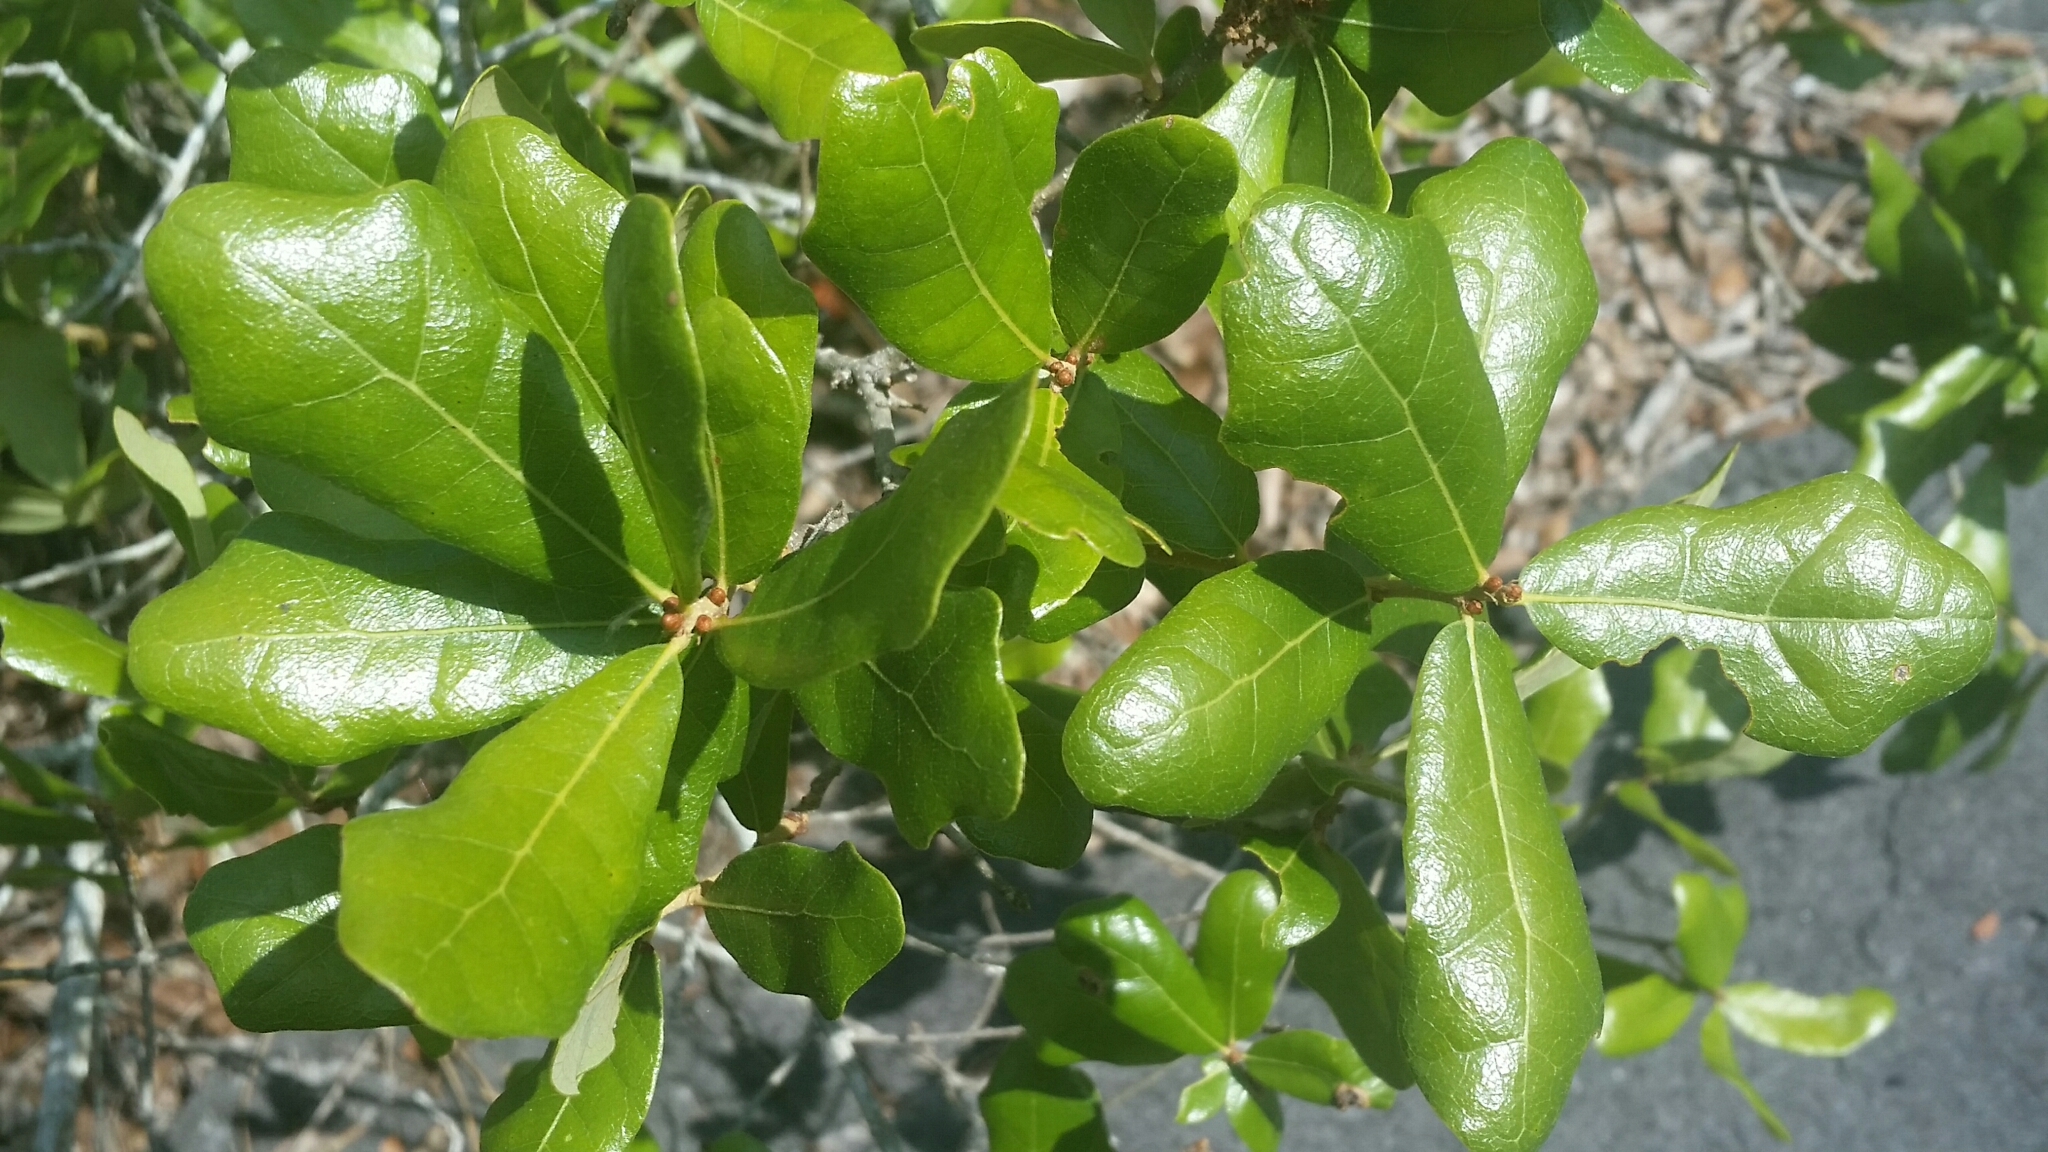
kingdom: Plantae
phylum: Tracheophyta
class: Magnoliopsida
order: Fagales
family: Fagaceae
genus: Quercus
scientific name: Quercus chapmanii
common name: Chapman oak
